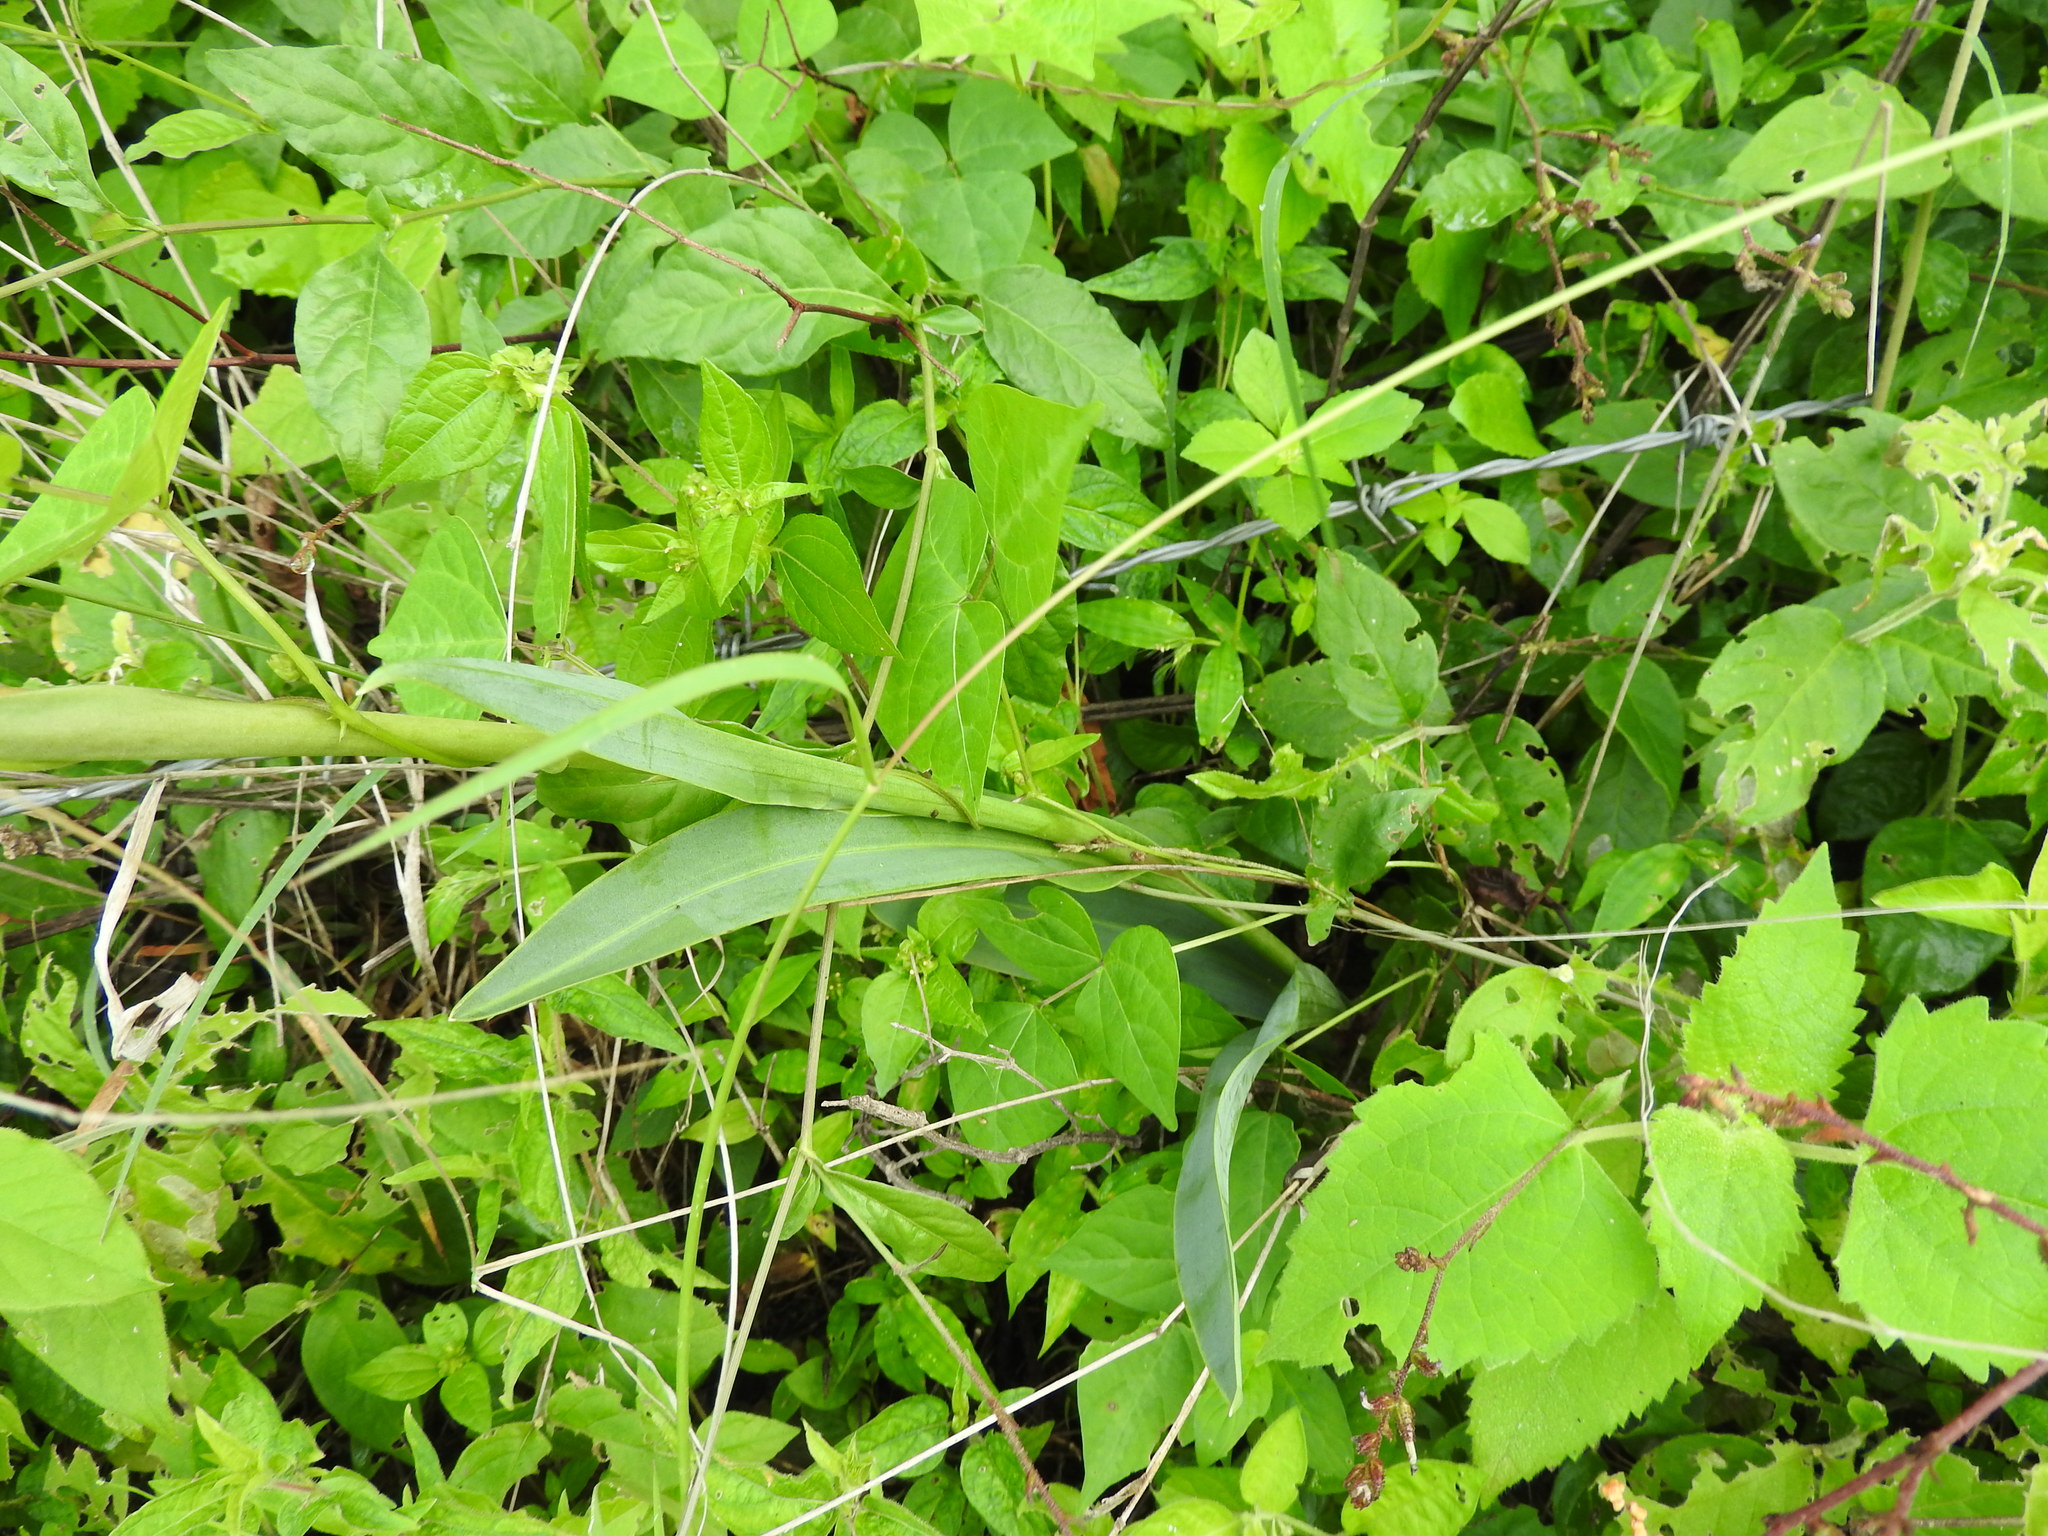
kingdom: Plantae
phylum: Tracheophyta
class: Liliopsida
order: Asparagales
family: Orchidaceae
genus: Dichromanthus
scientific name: Dichromanthus cinnabarinus
